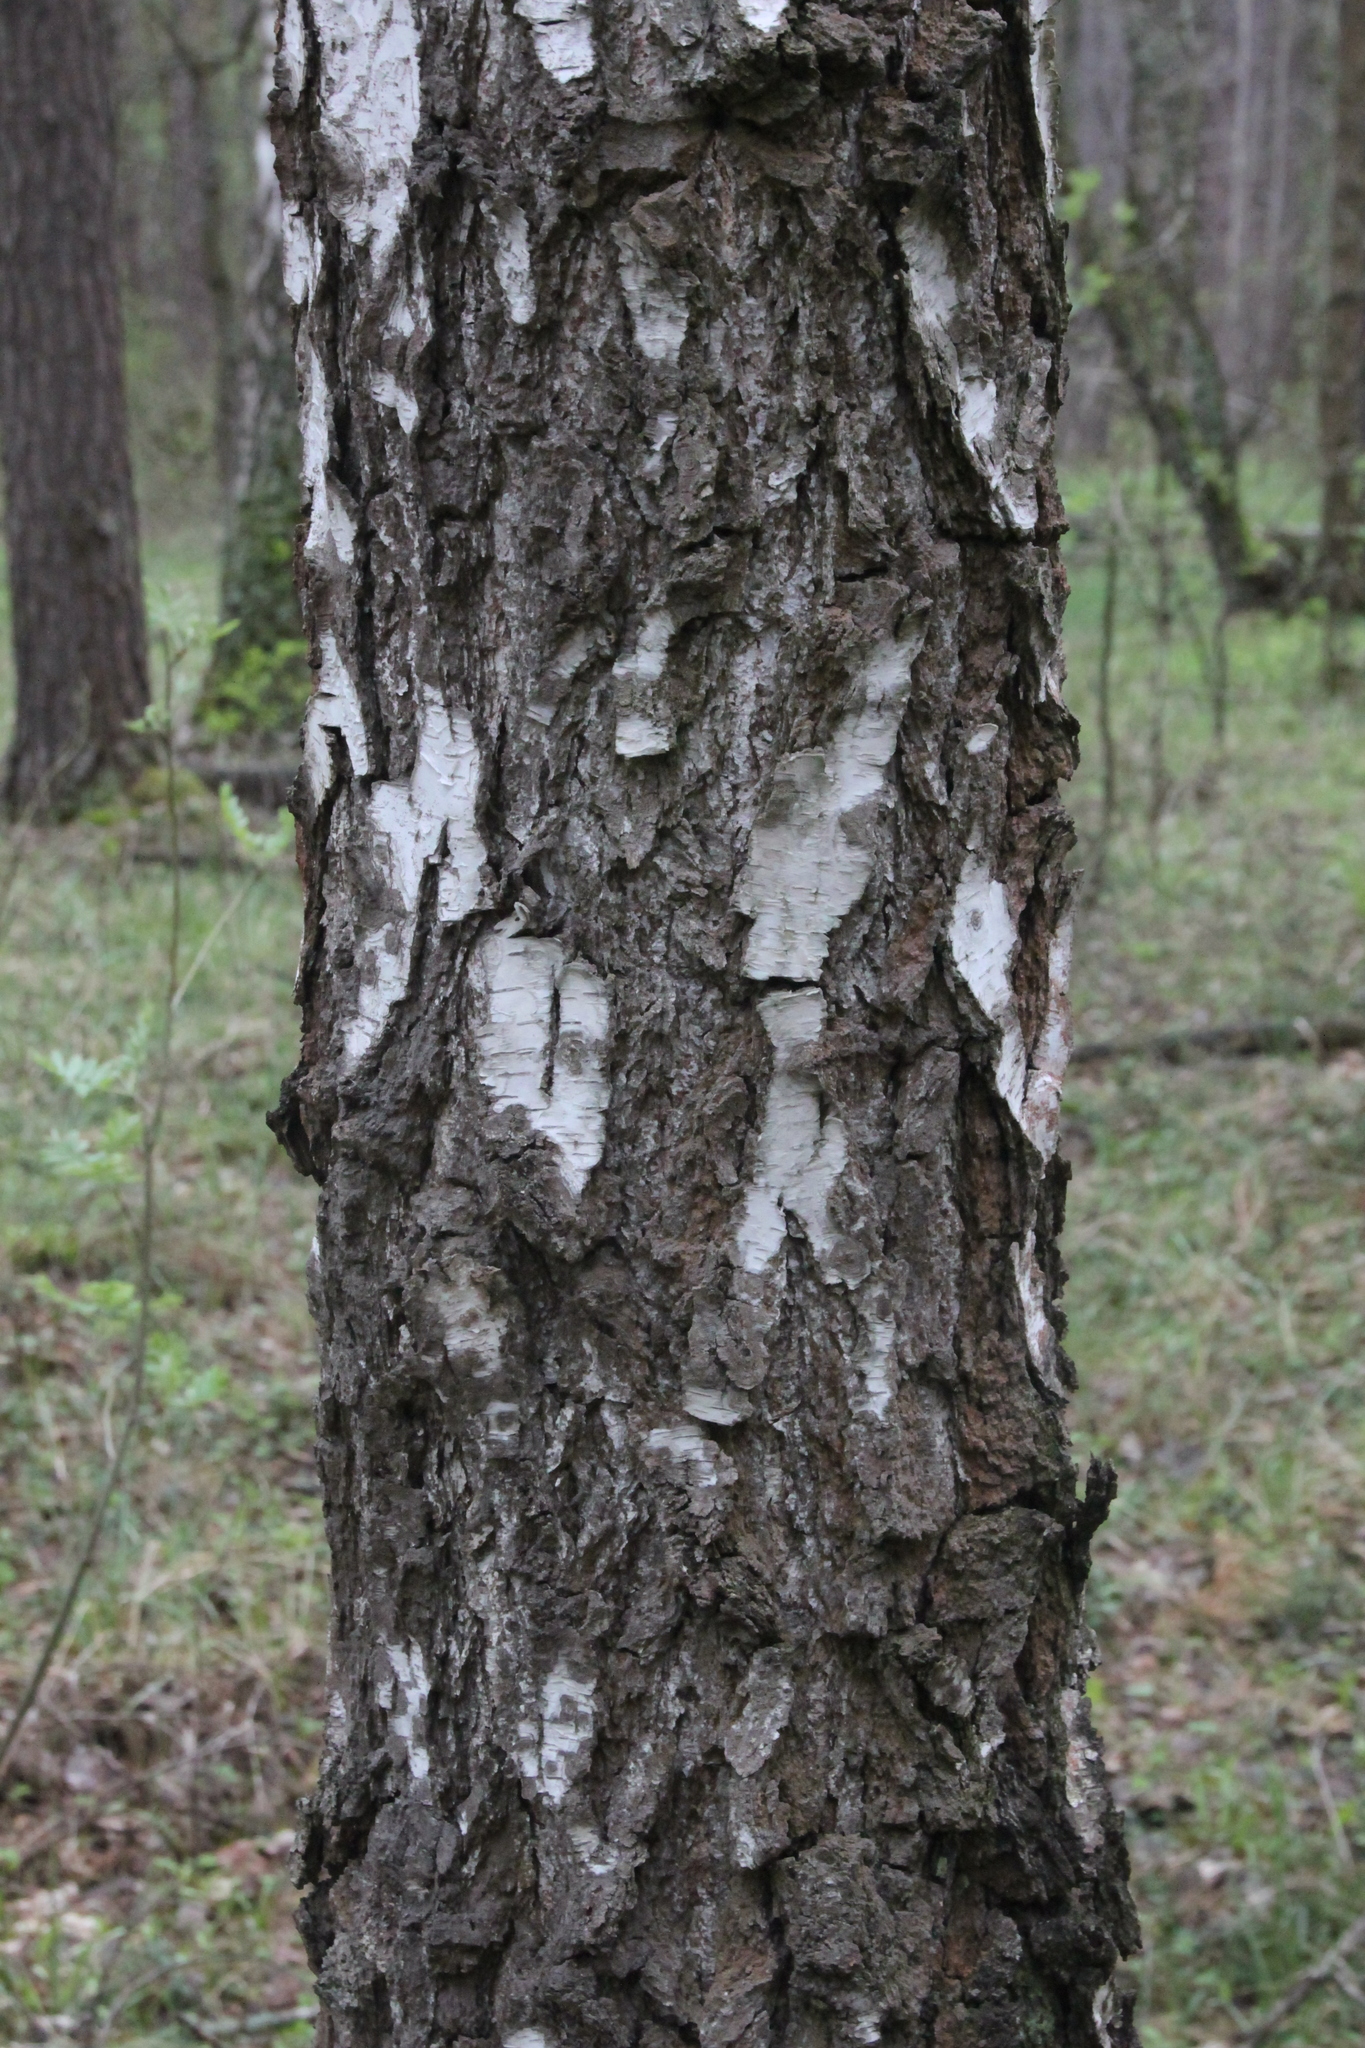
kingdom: Plantae
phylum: Tracheophyta
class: Magnoliopsida
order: Fagales
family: Betulaceae
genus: Betula
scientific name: Betula pendula
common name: Silver birch
